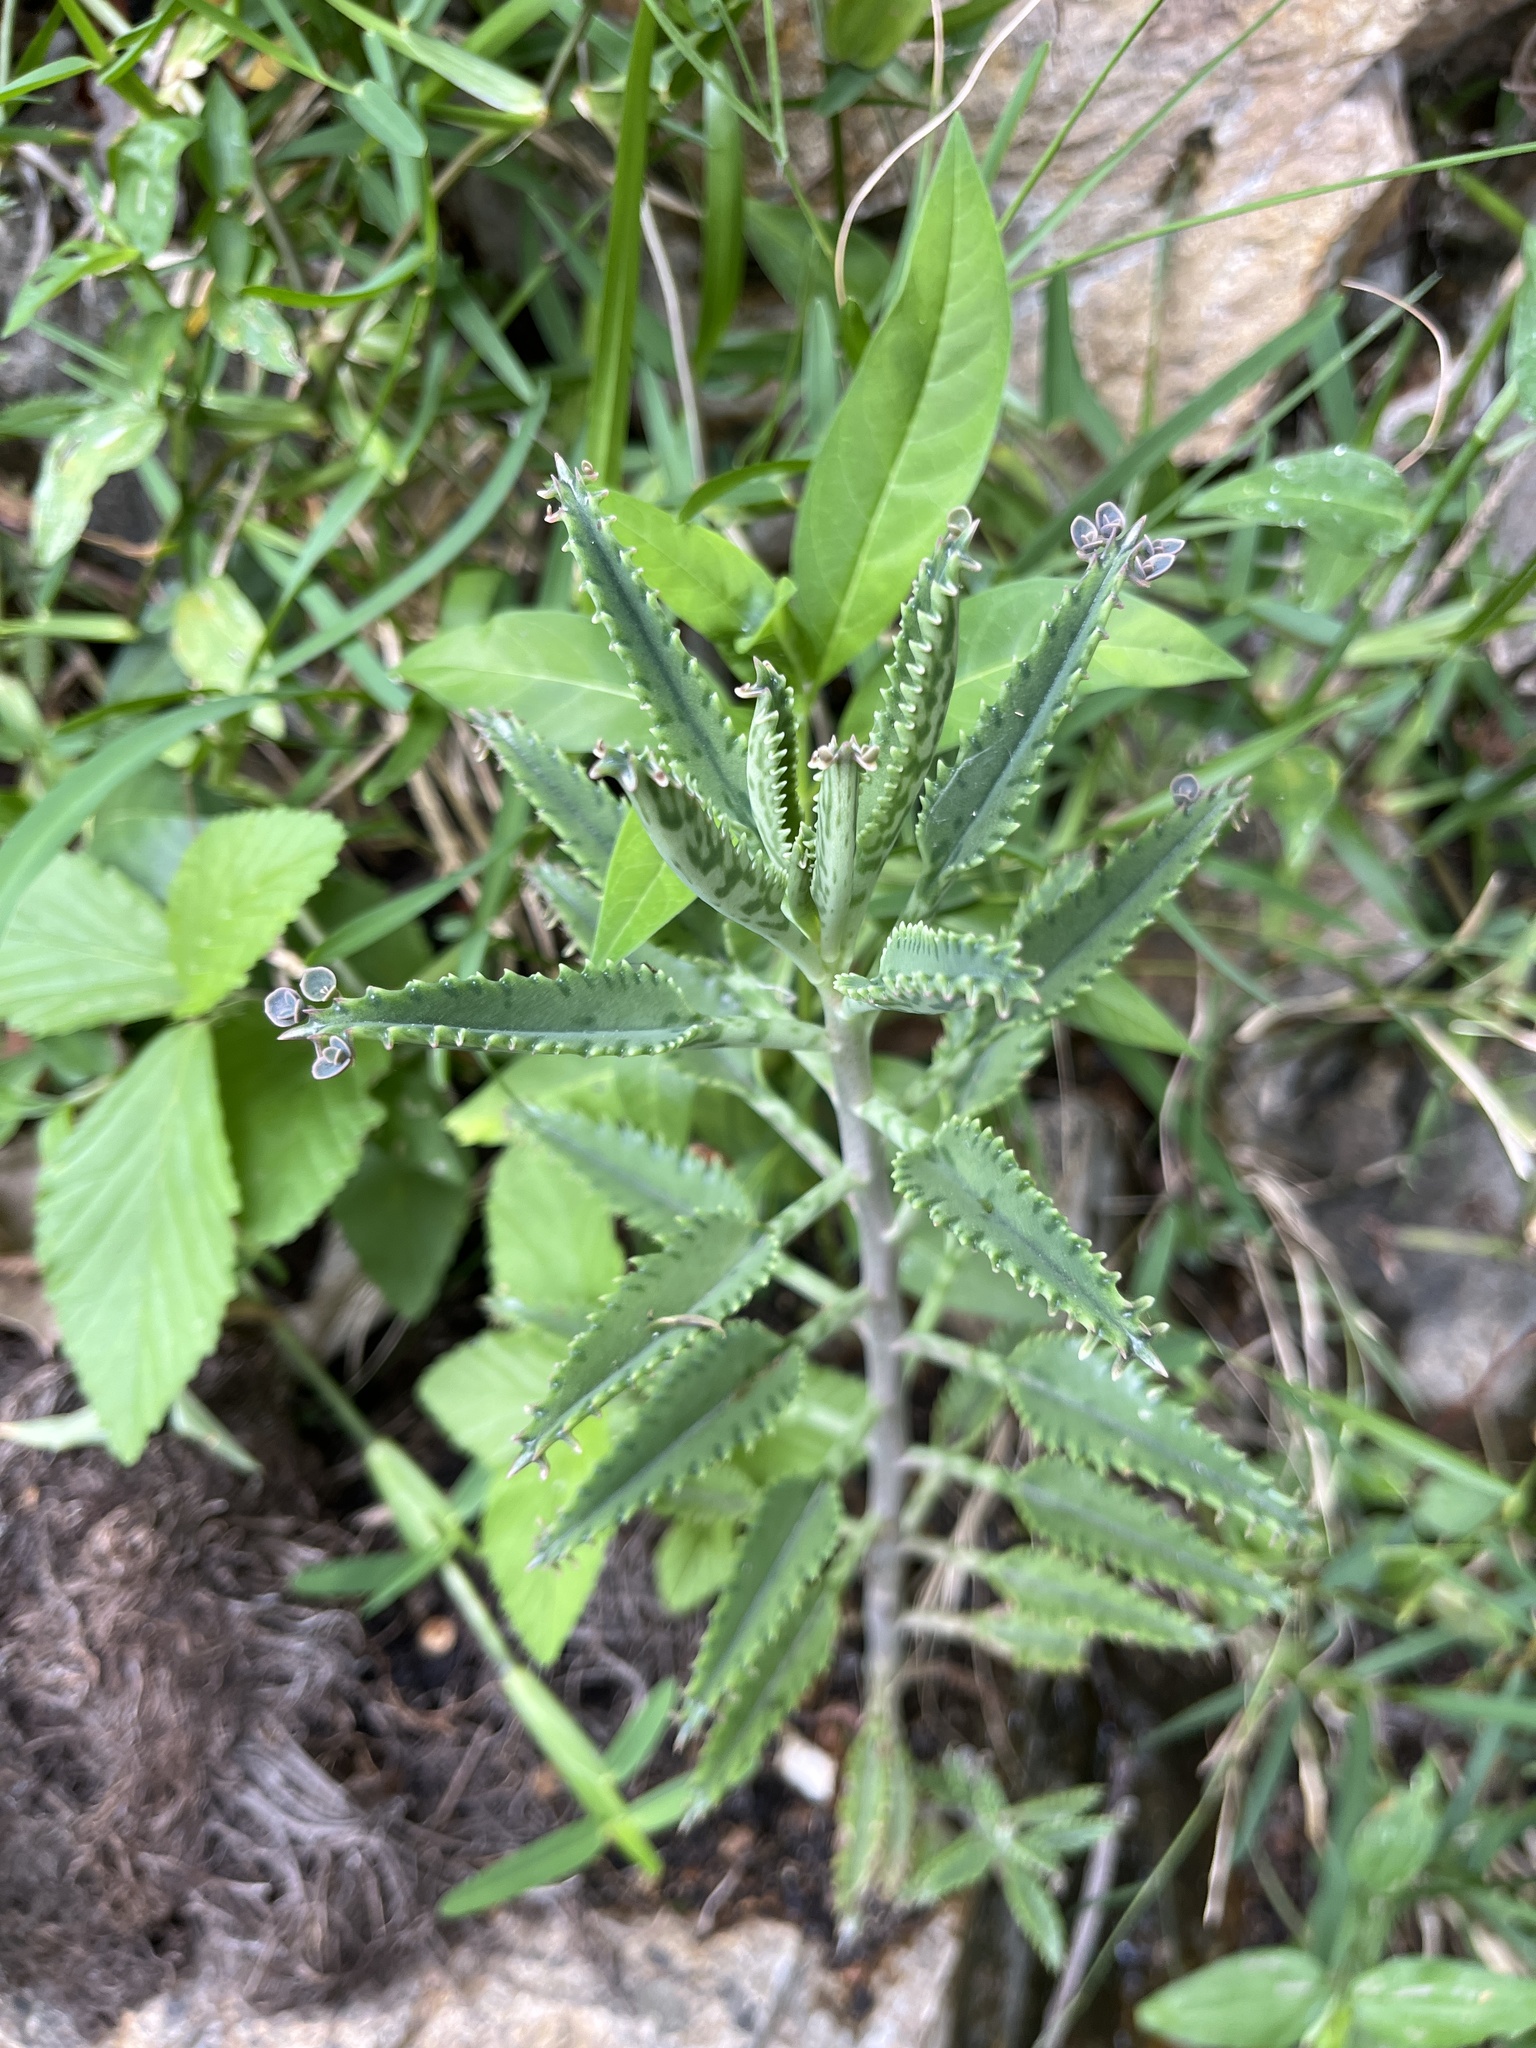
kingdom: Plantae
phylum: Tracheophyta
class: Magnoliopsida
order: Saxifragales
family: Crassulaceae
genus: Kalanchoe
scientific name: Kalanchoe houghtonii
